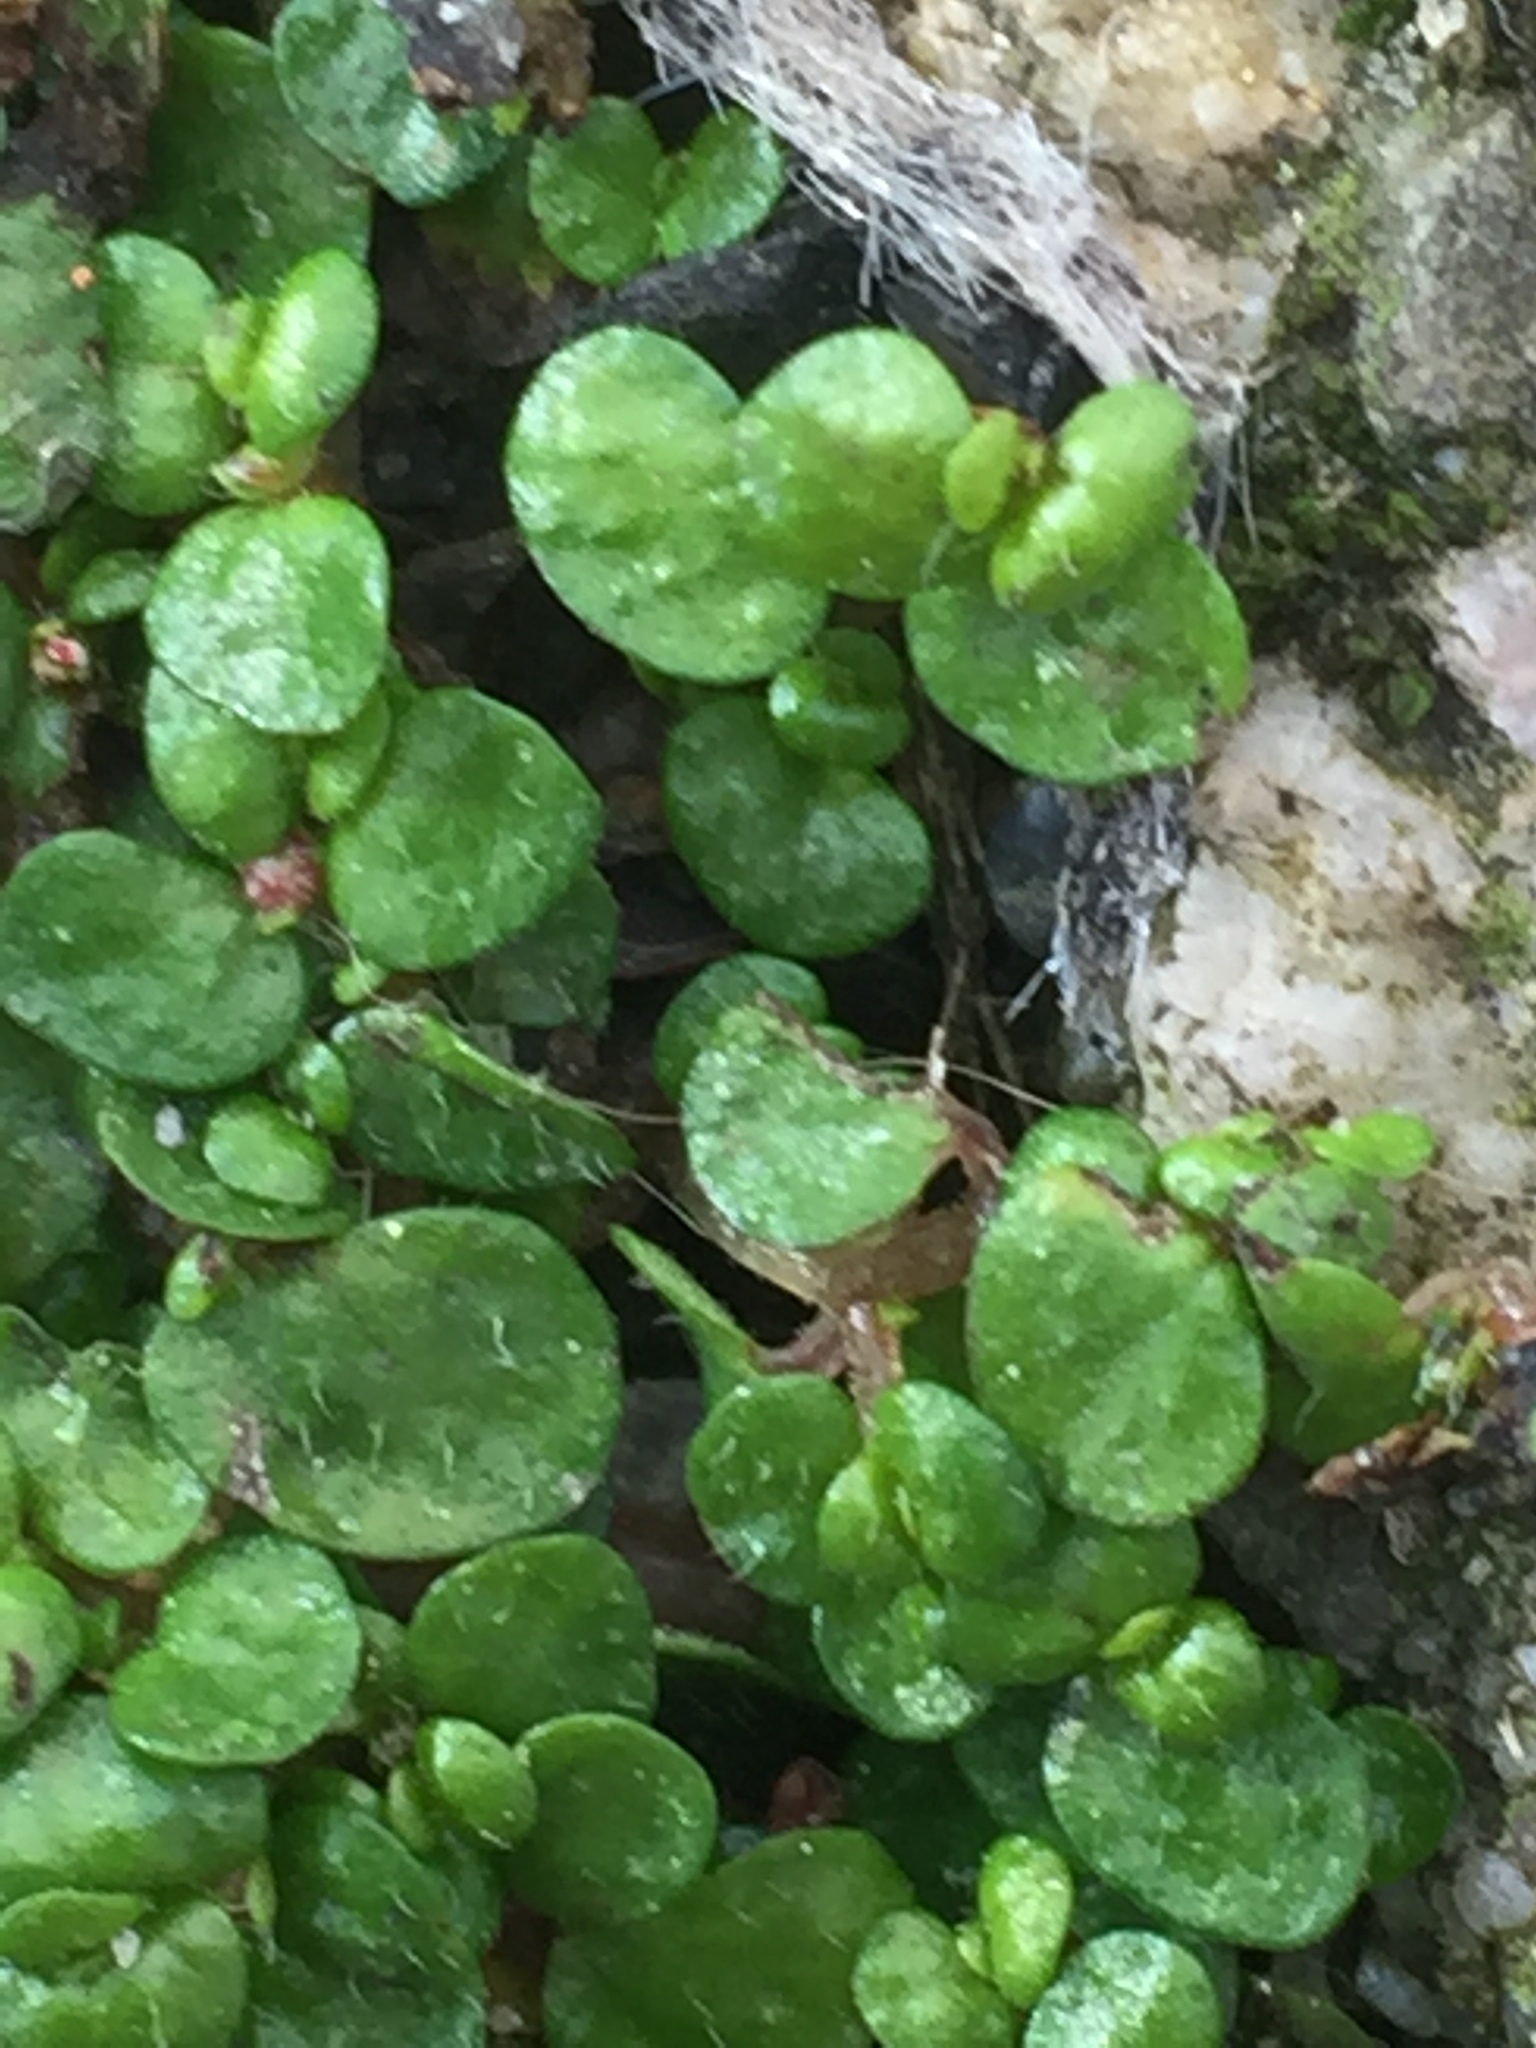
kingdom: Plantae
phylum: Tracheophyta
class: Magnoliopsida
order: Rosales
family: Urticaceae
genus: Soleirolia
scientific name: Soleirolia soleirolii
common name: Mind-your-own-business
